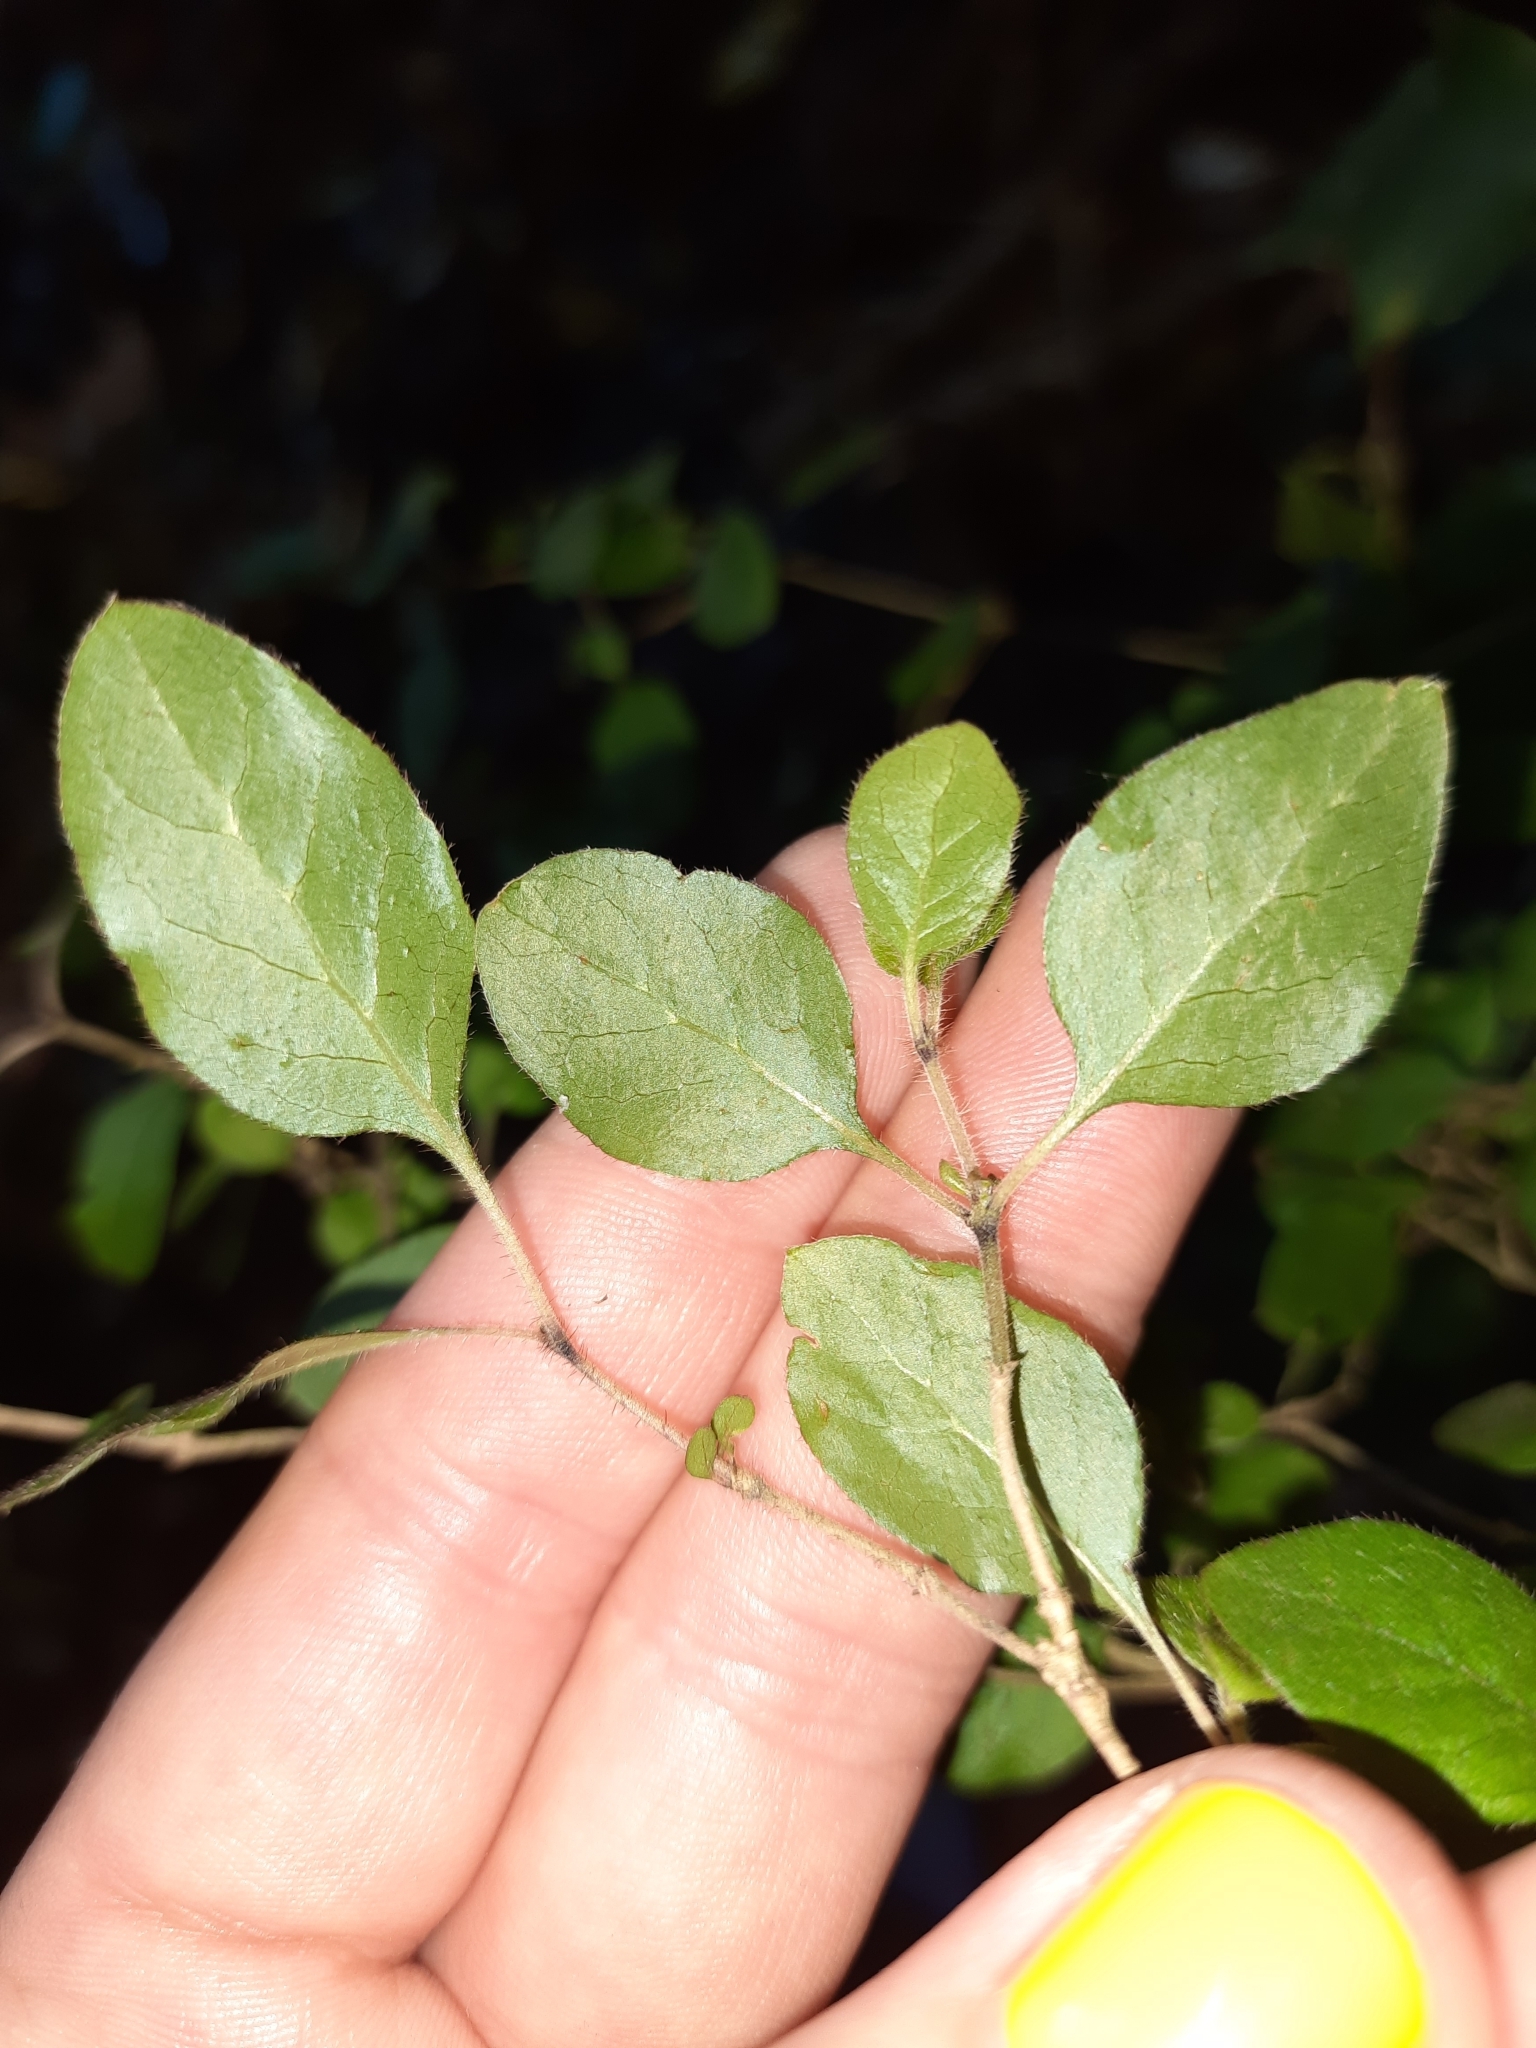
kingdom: Plantae
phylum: Tracheophyta
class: Magnoliopsida
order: Gentianales
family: Rubiaceae
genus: Coprosma
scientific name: Coprosma rotundifolia
